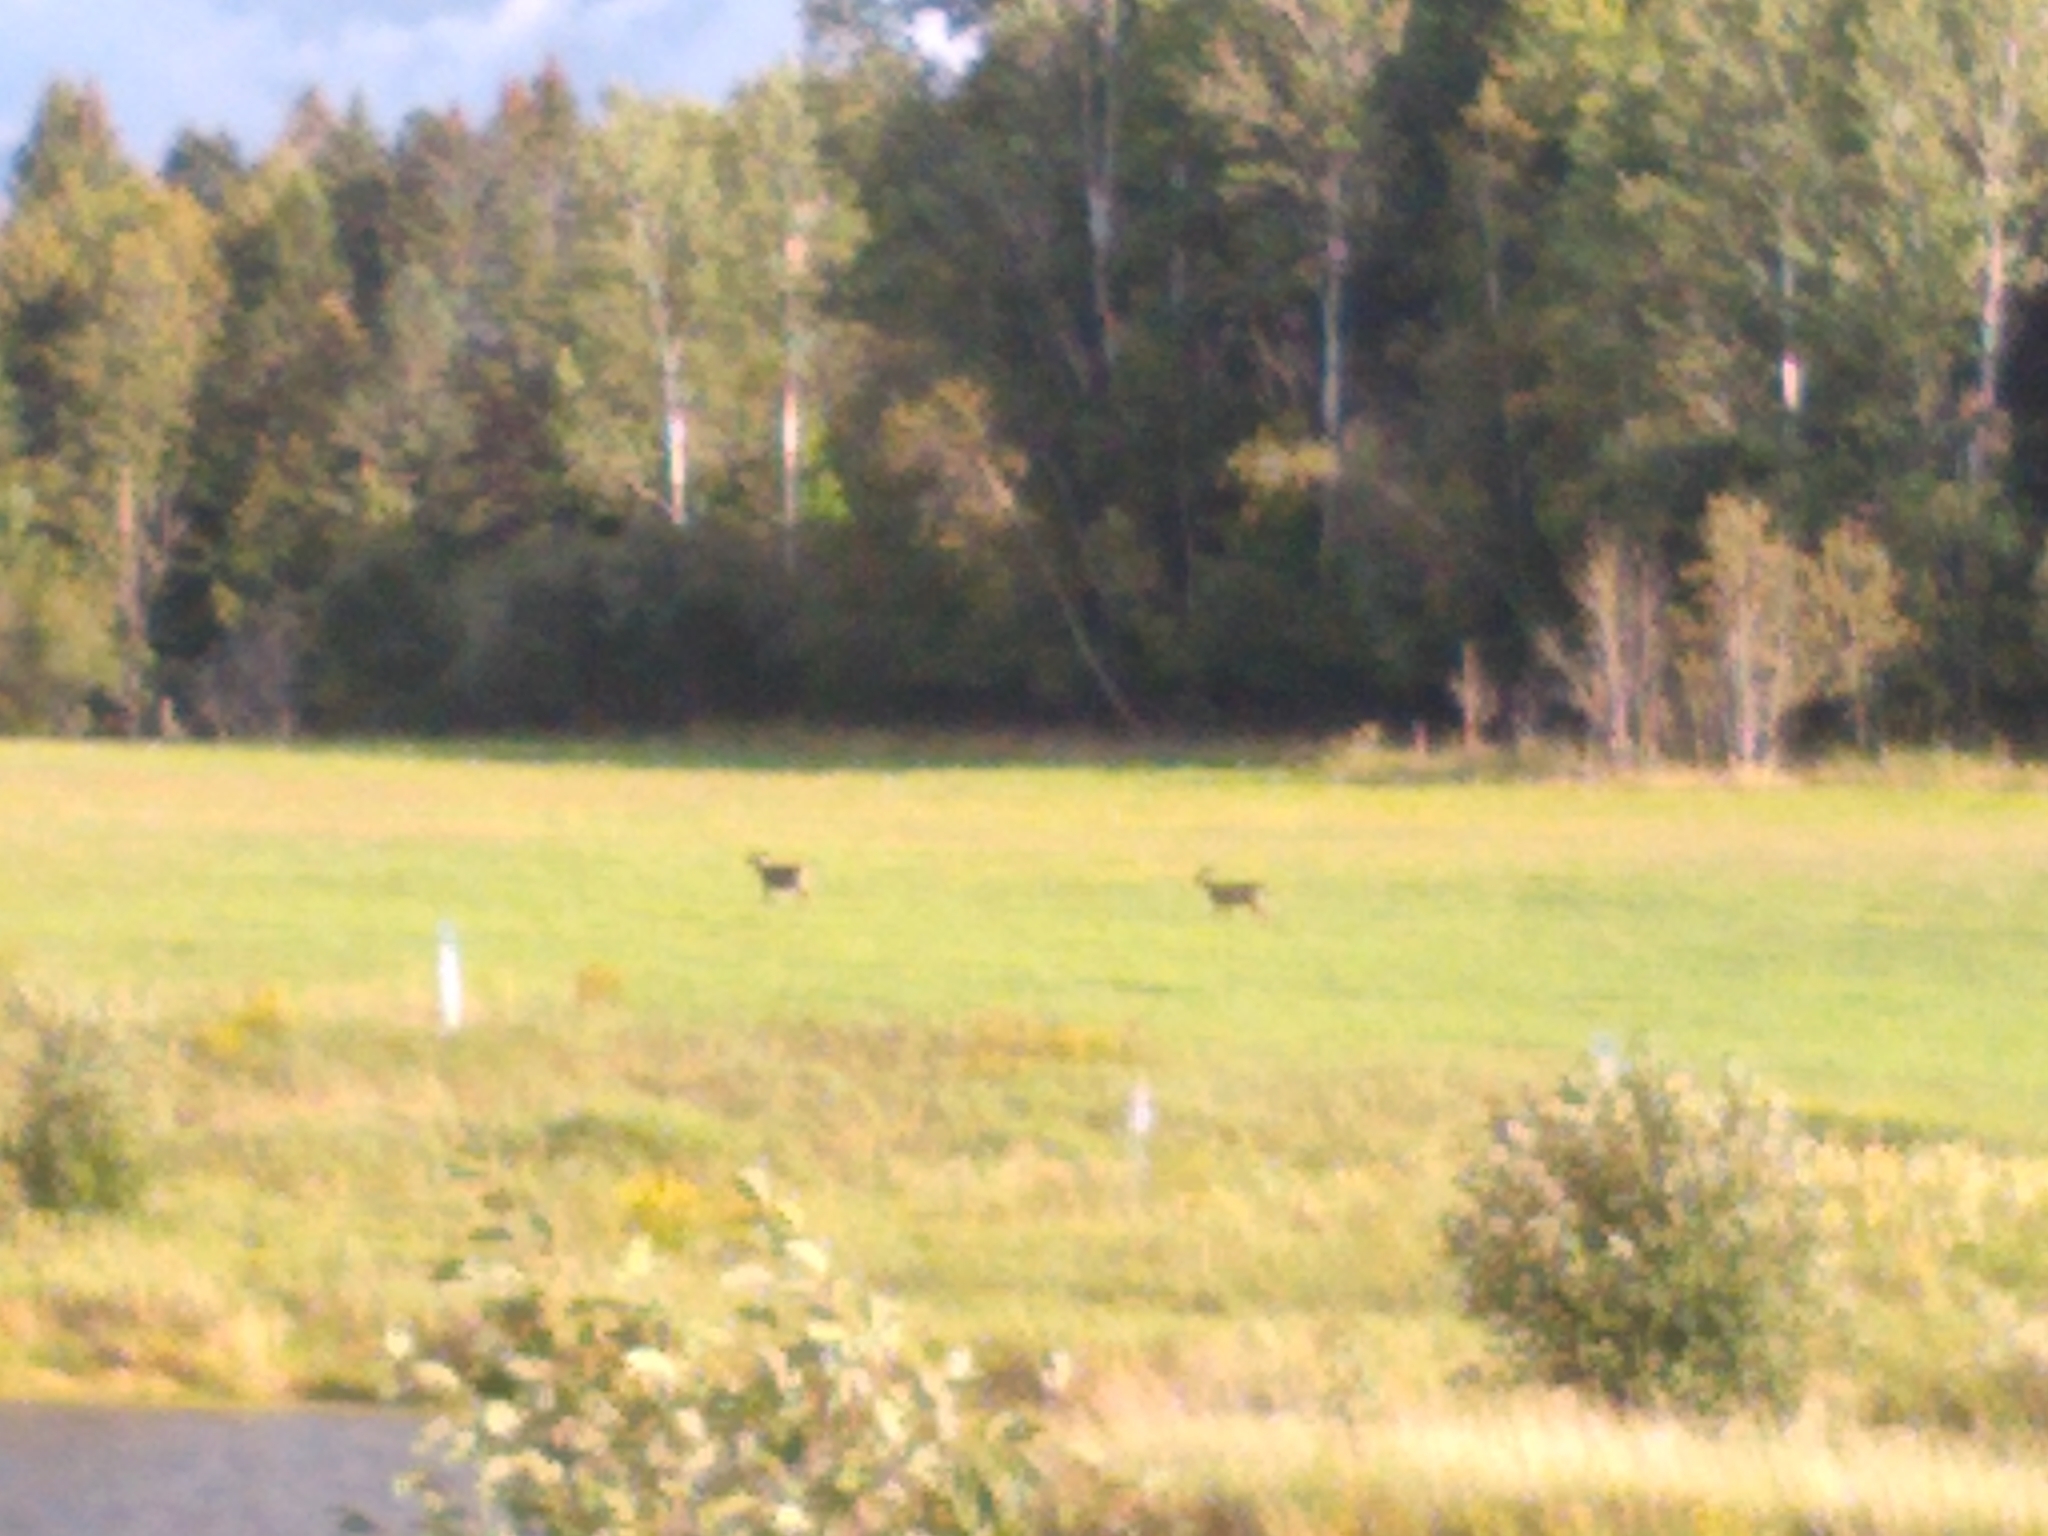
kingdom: Animalia
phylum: Chordata
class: Mammalia
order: Artiodactyla
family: Cervidae
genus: Odocoileus
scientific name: Odocoileus virginianus
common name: White-tailed deer
